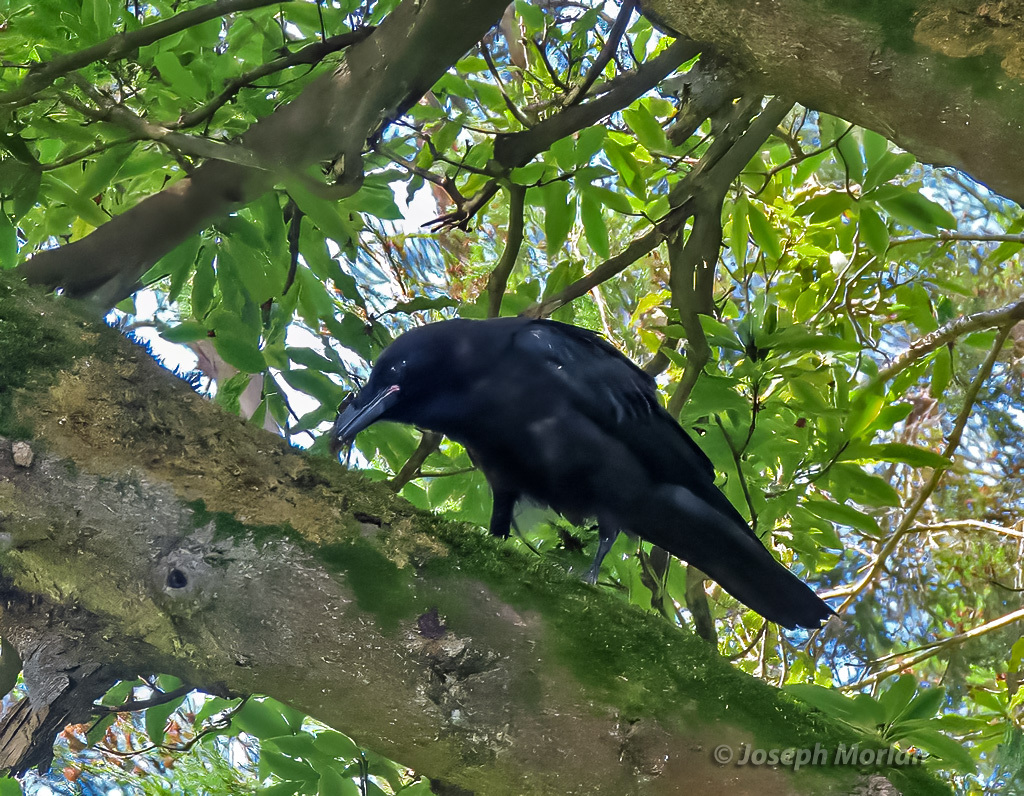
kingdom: Animalia
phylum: Chordata
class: Aves
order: Passeriformes
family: Corvidae
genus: Corvus
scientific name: Corvus corax
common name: Common raven
